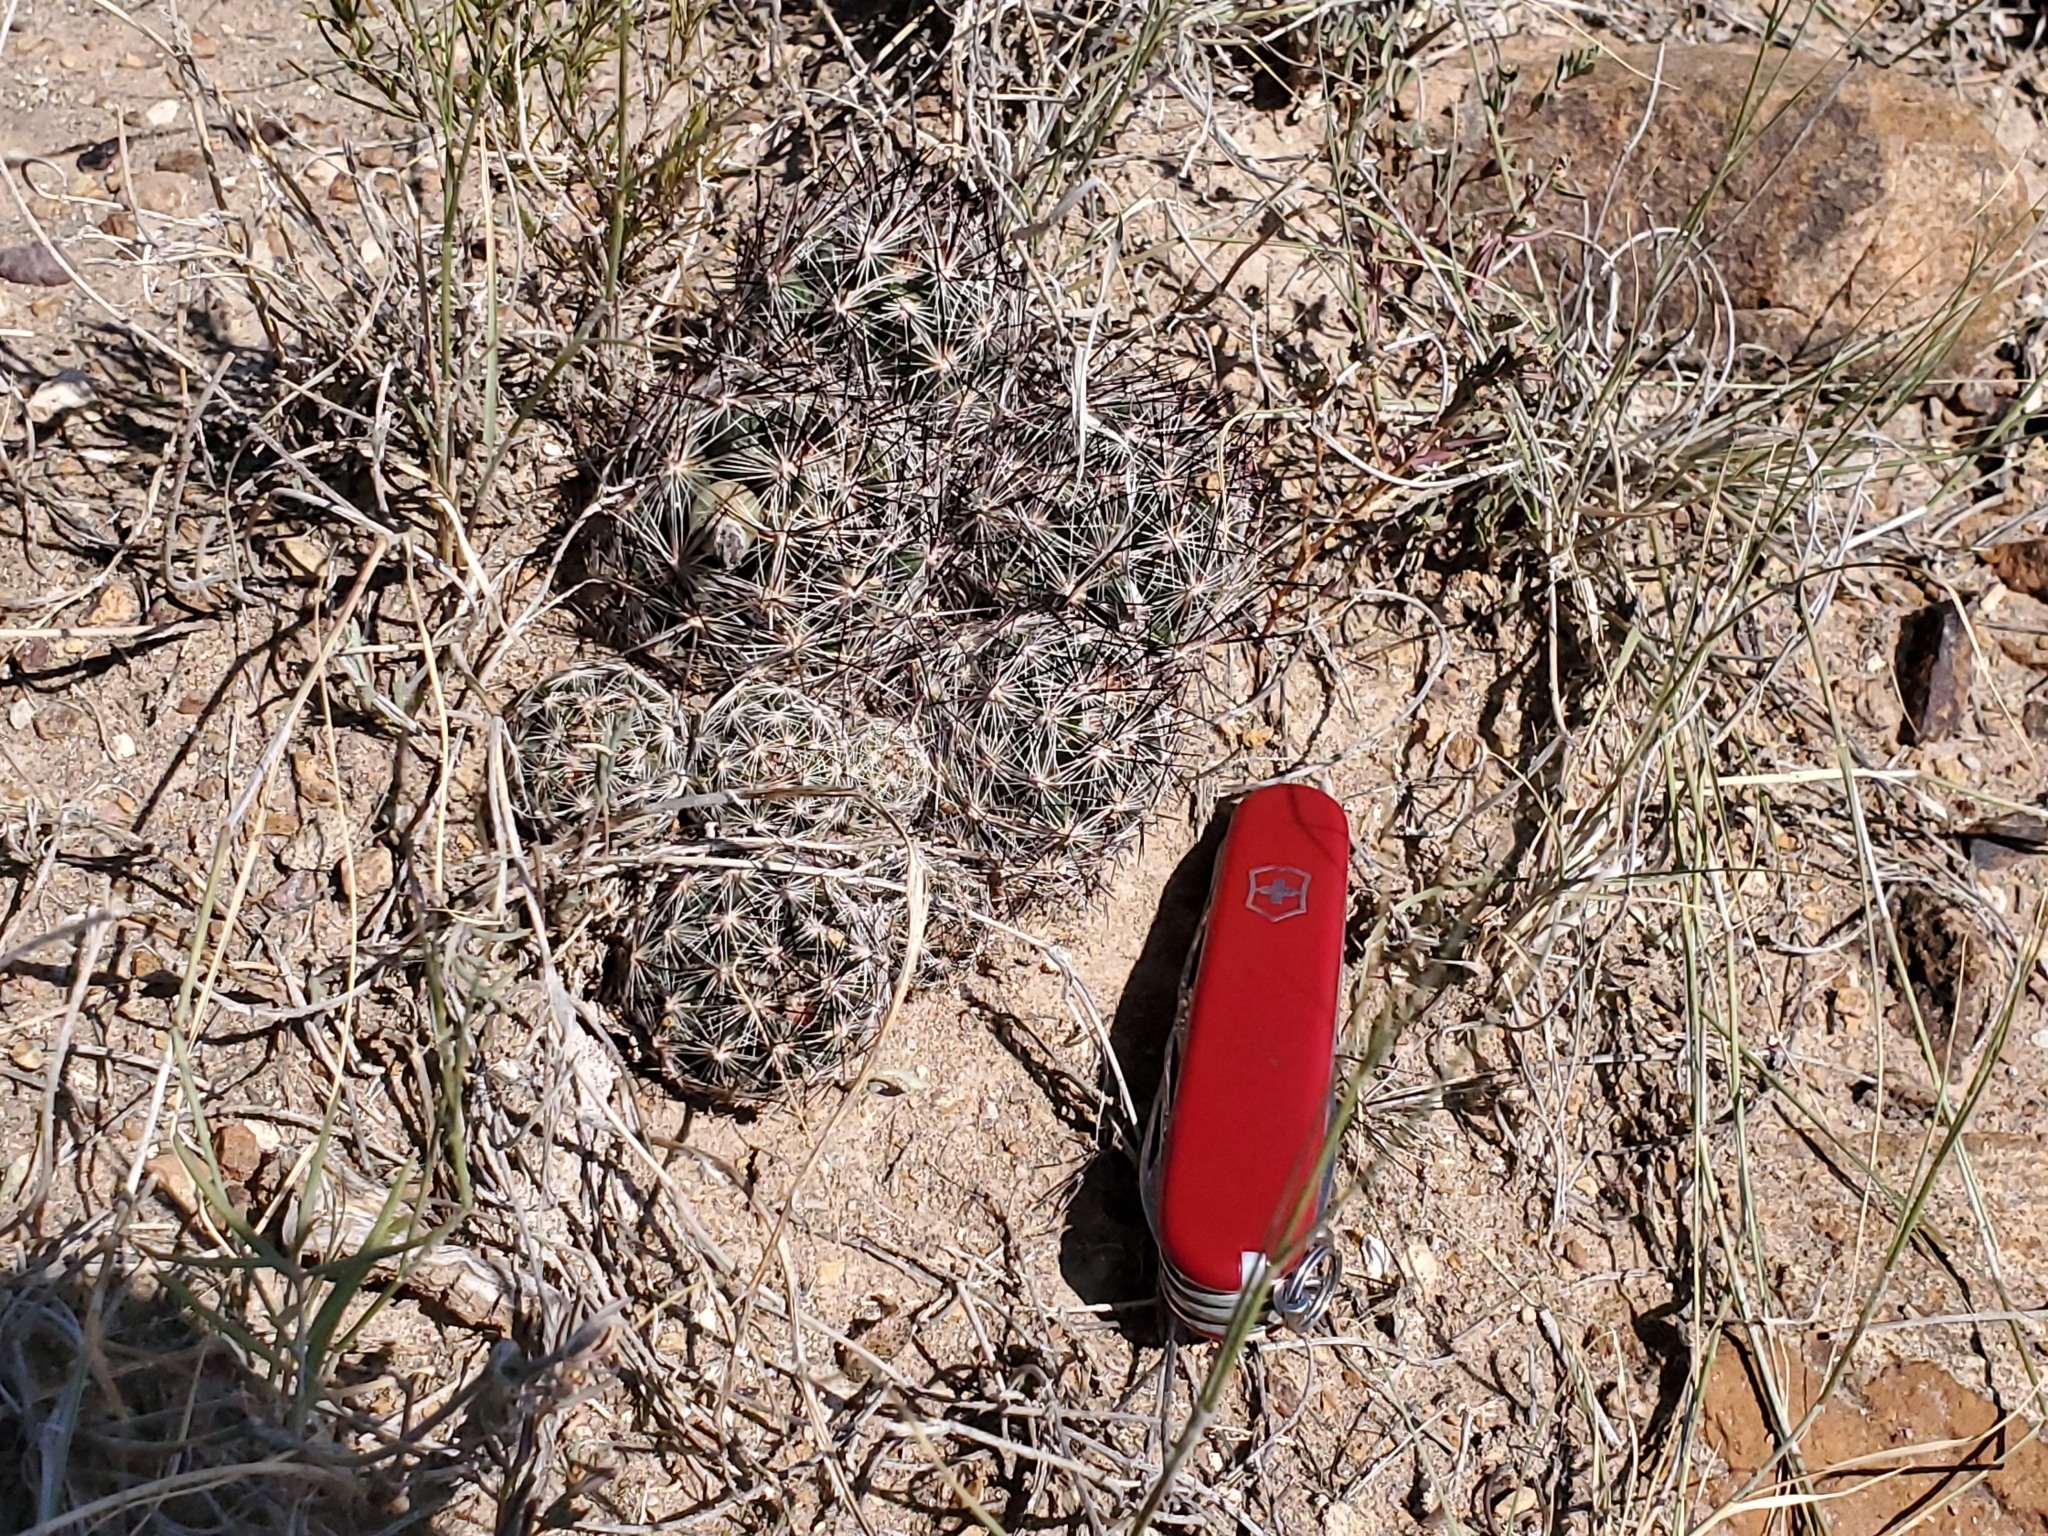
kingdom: Plantae
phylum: Tracheophyta
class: Magnoliopsida
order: Caryophyllales
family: Cactaceae
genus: Pelecyphora
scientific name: Pelecyphora vivipara
